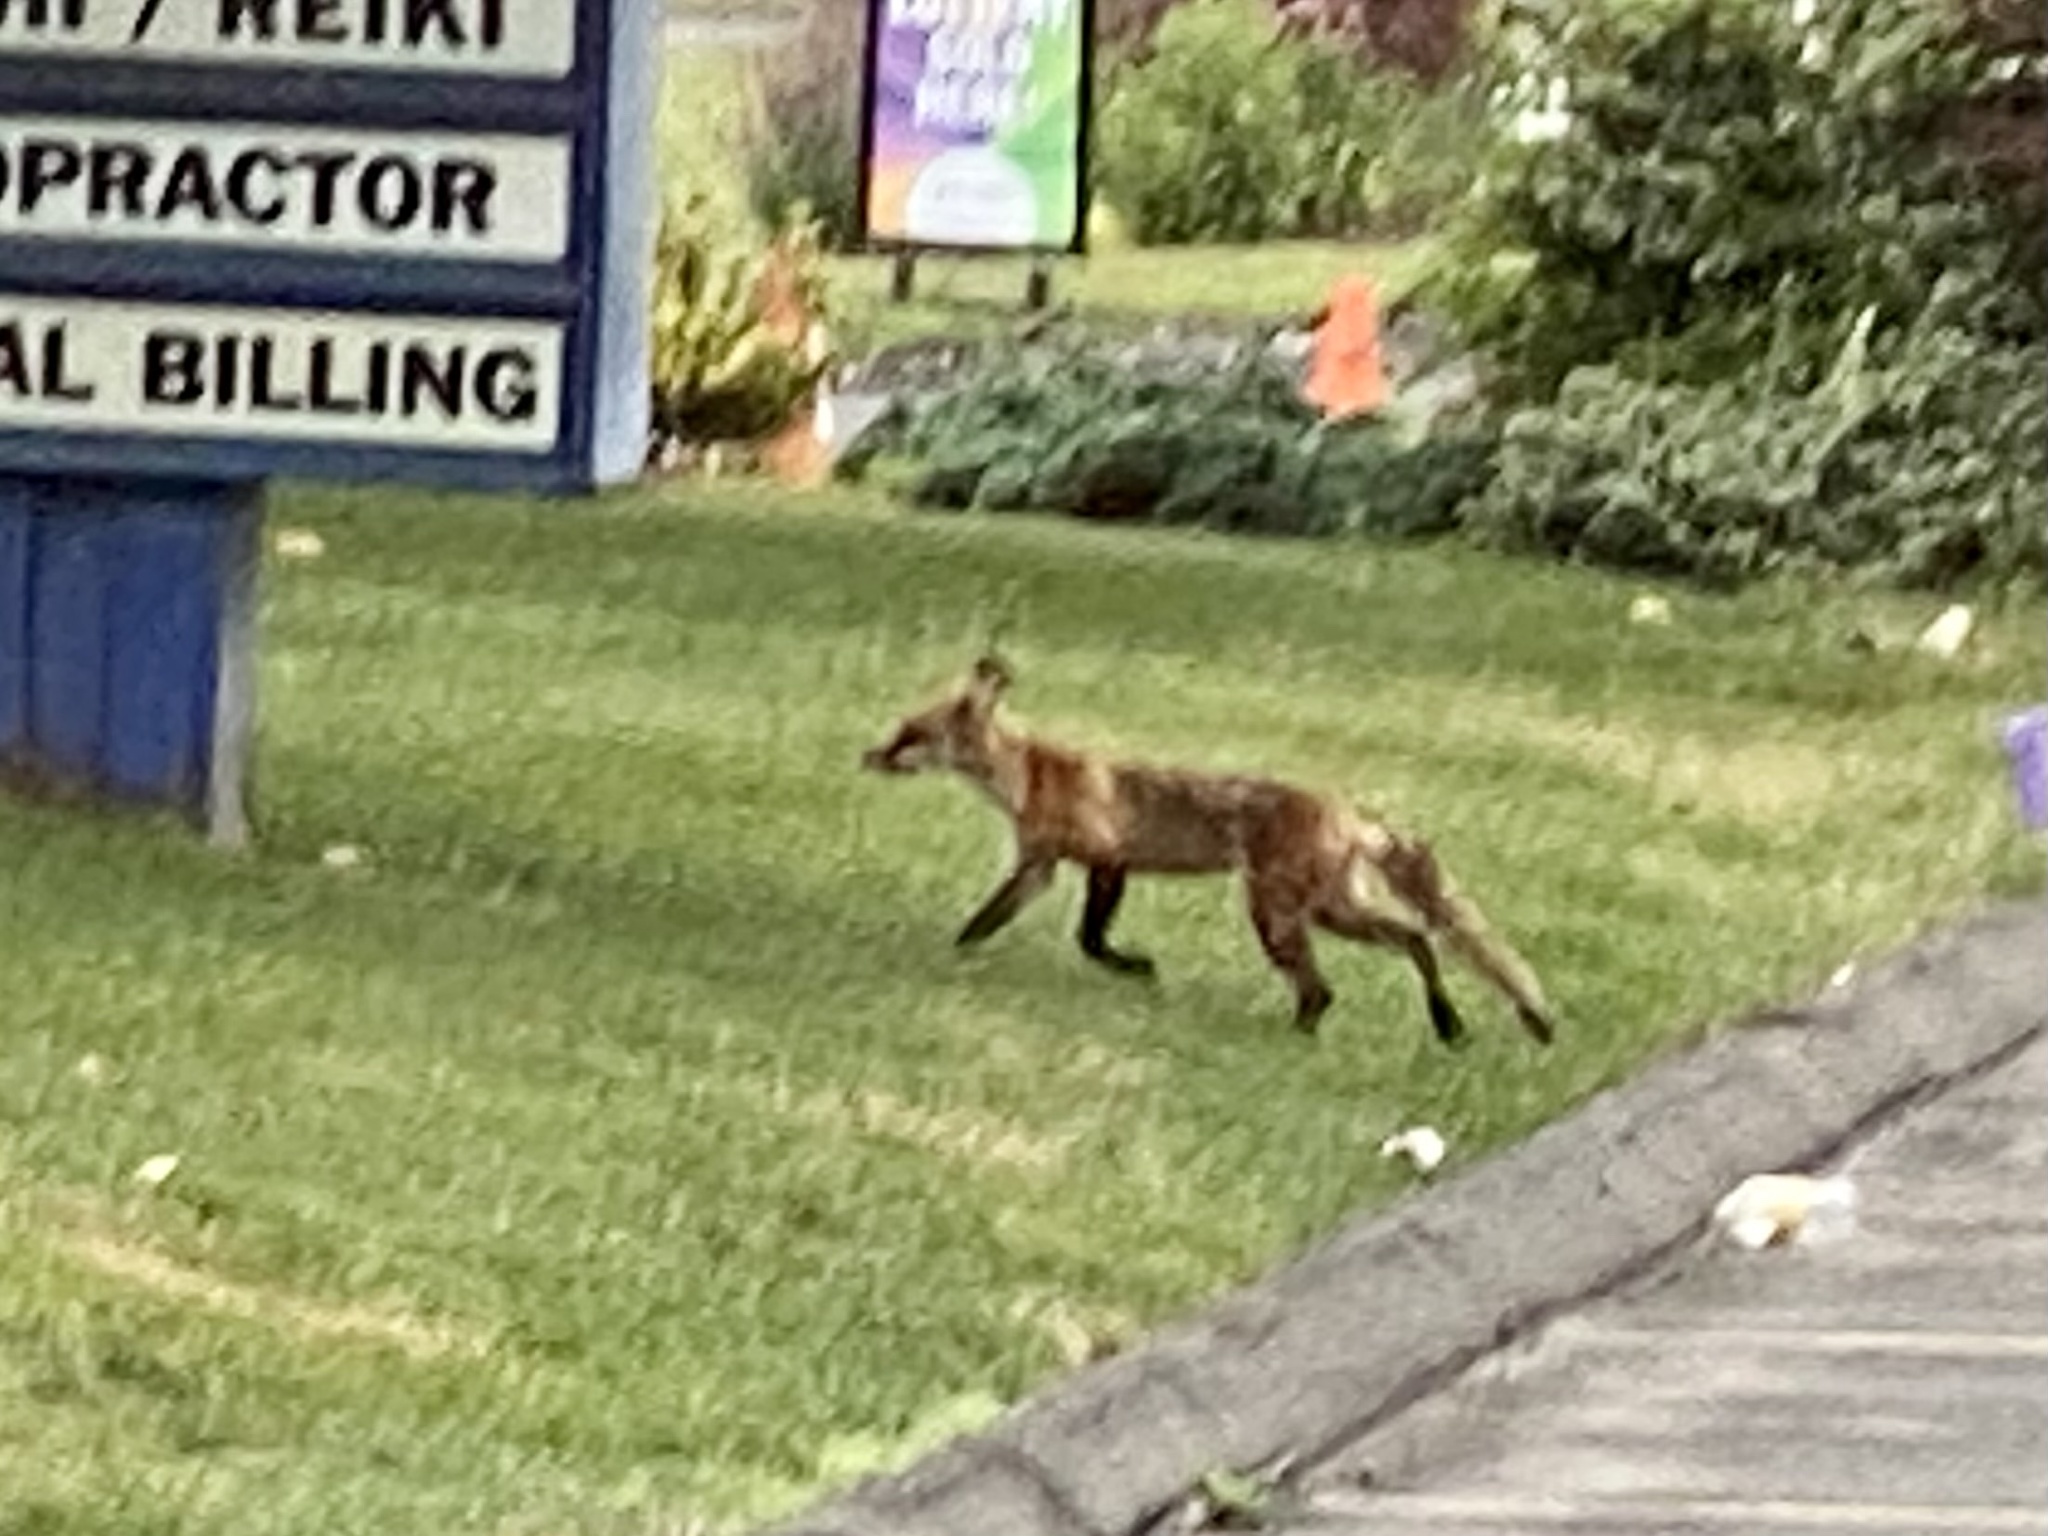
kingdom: Animalia
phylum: Chordata
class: Mammalia
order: Carnivora
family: Canidae
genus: Vulpes
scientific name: Vulpes vulpes
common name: Red fox
